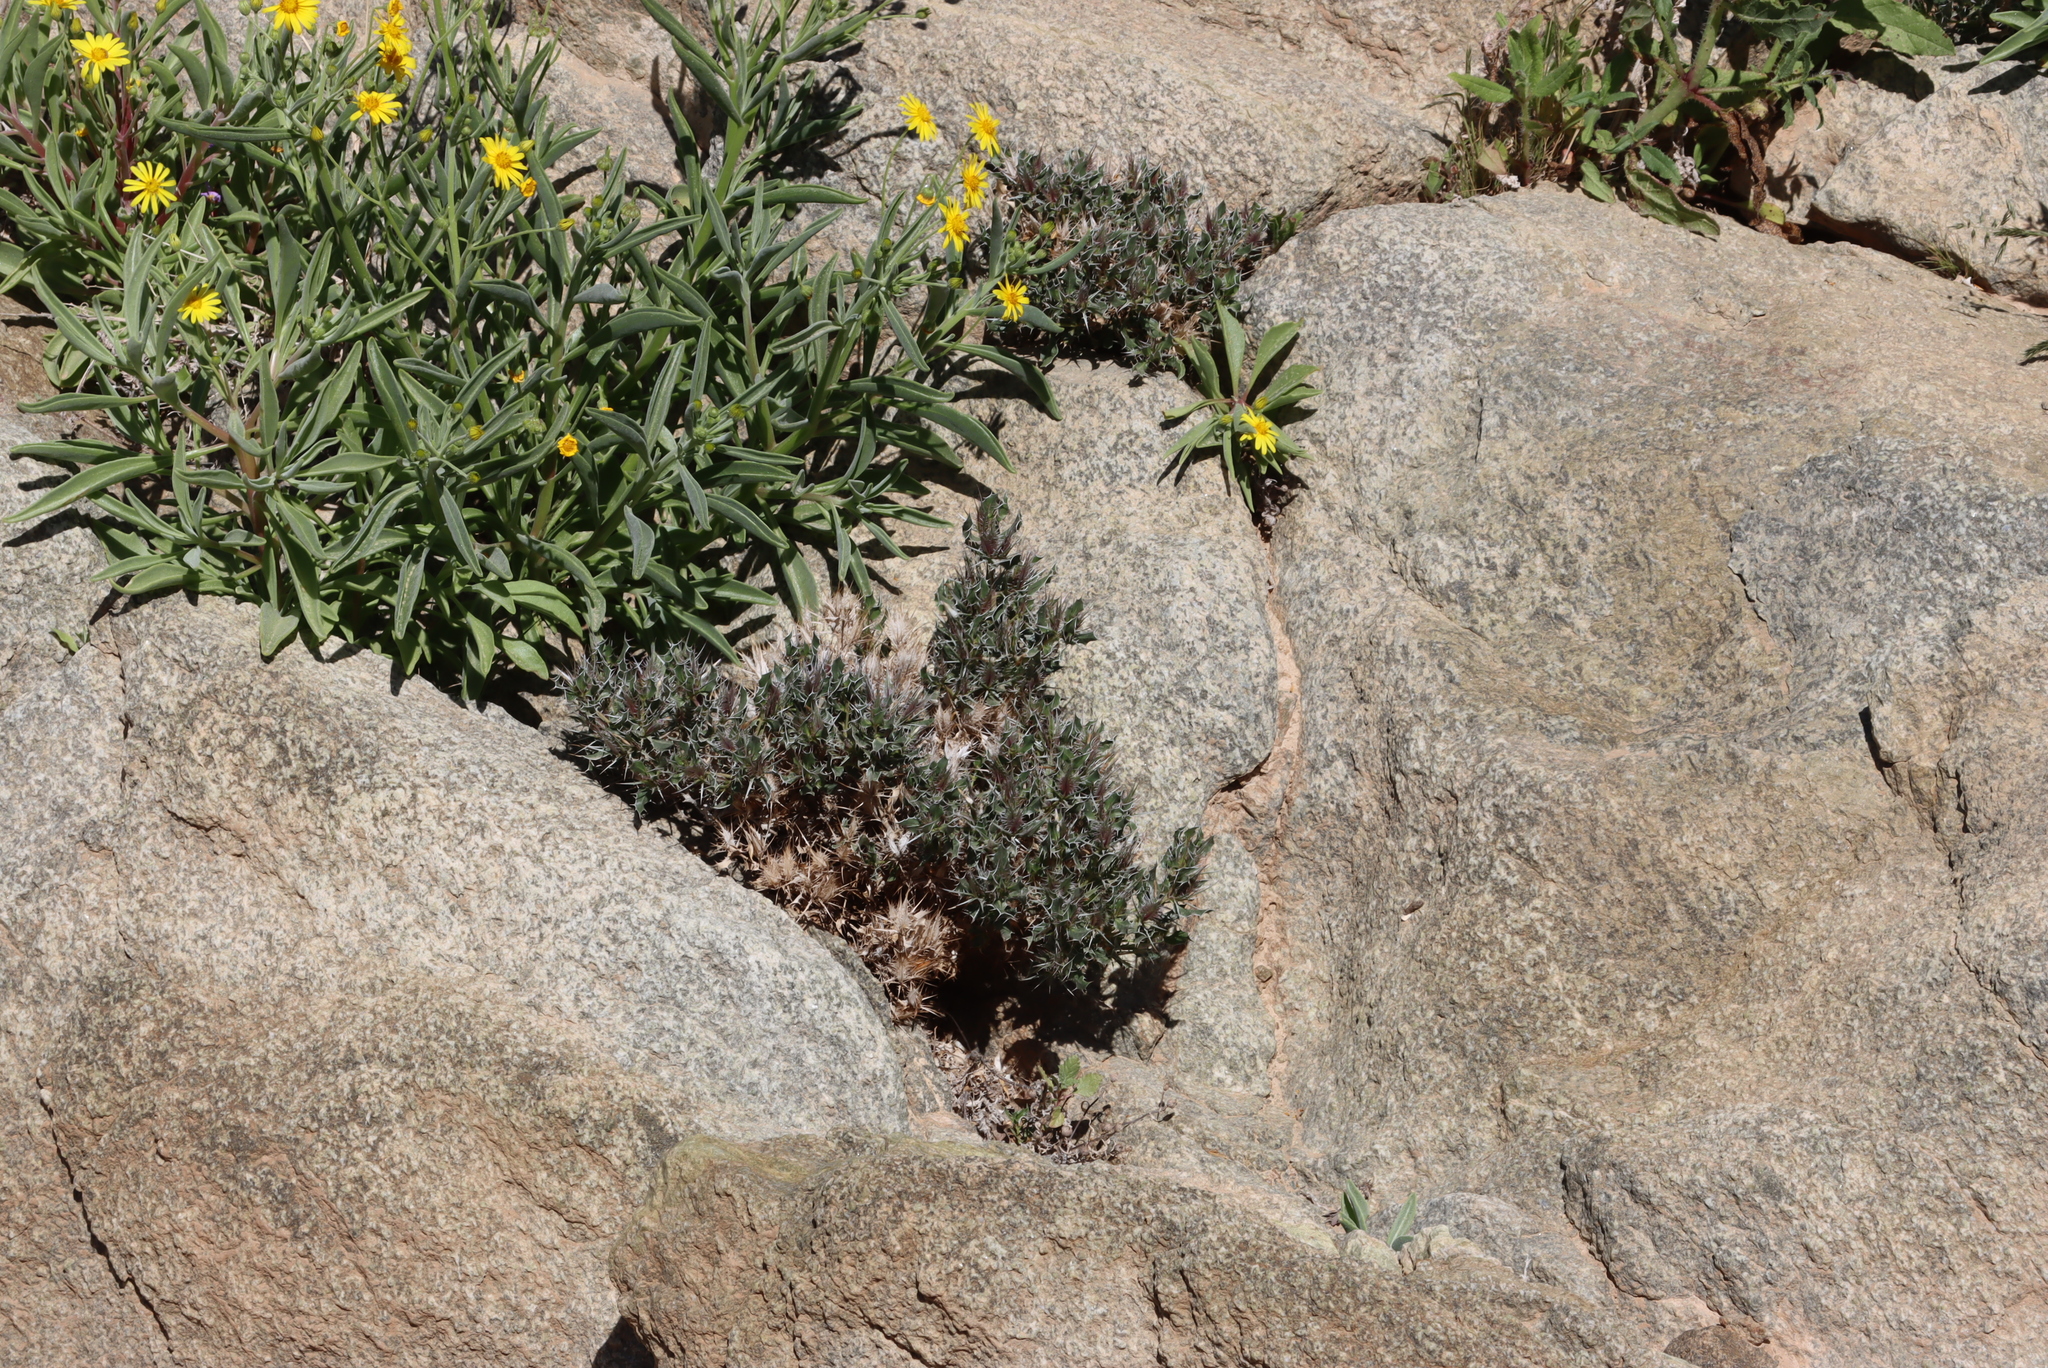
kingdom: Plantae
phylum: Tracheophyta
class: Magnoliopsida
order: Lamiales
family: Acanthaceae
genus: Barleria
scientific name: Barleria rigida
